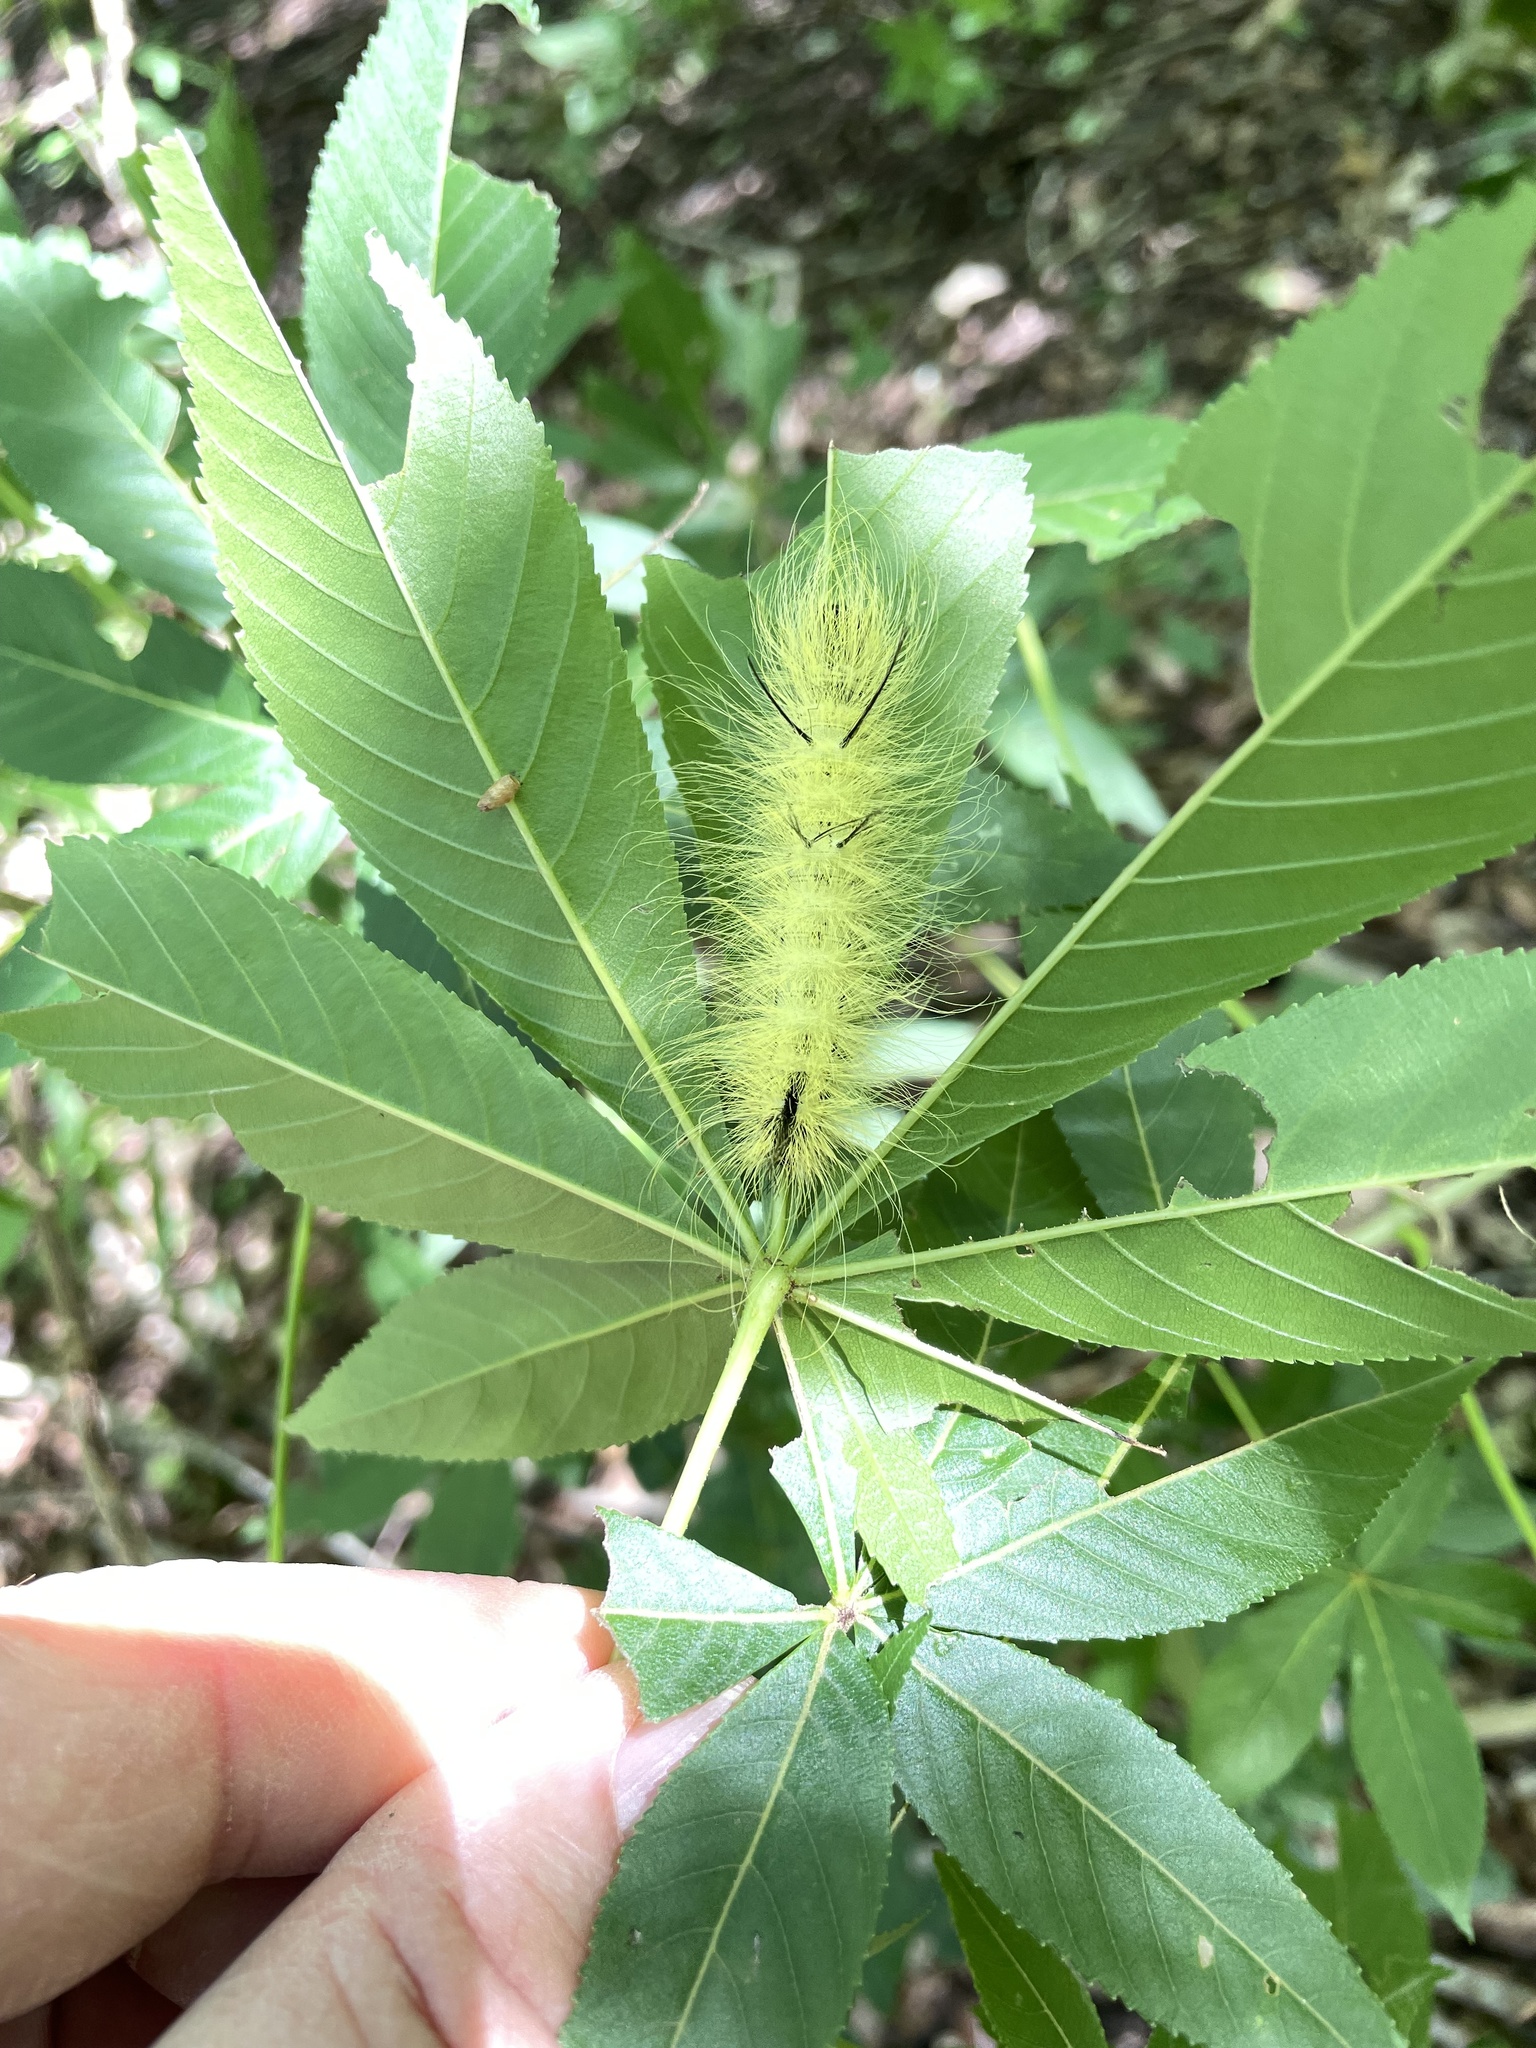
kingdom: Animalia
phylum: Arthropoda
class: Insecta
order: Lepidoptera
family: Noctuidae
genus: Acronicta
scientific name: Acronicta americana
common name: American dagger
